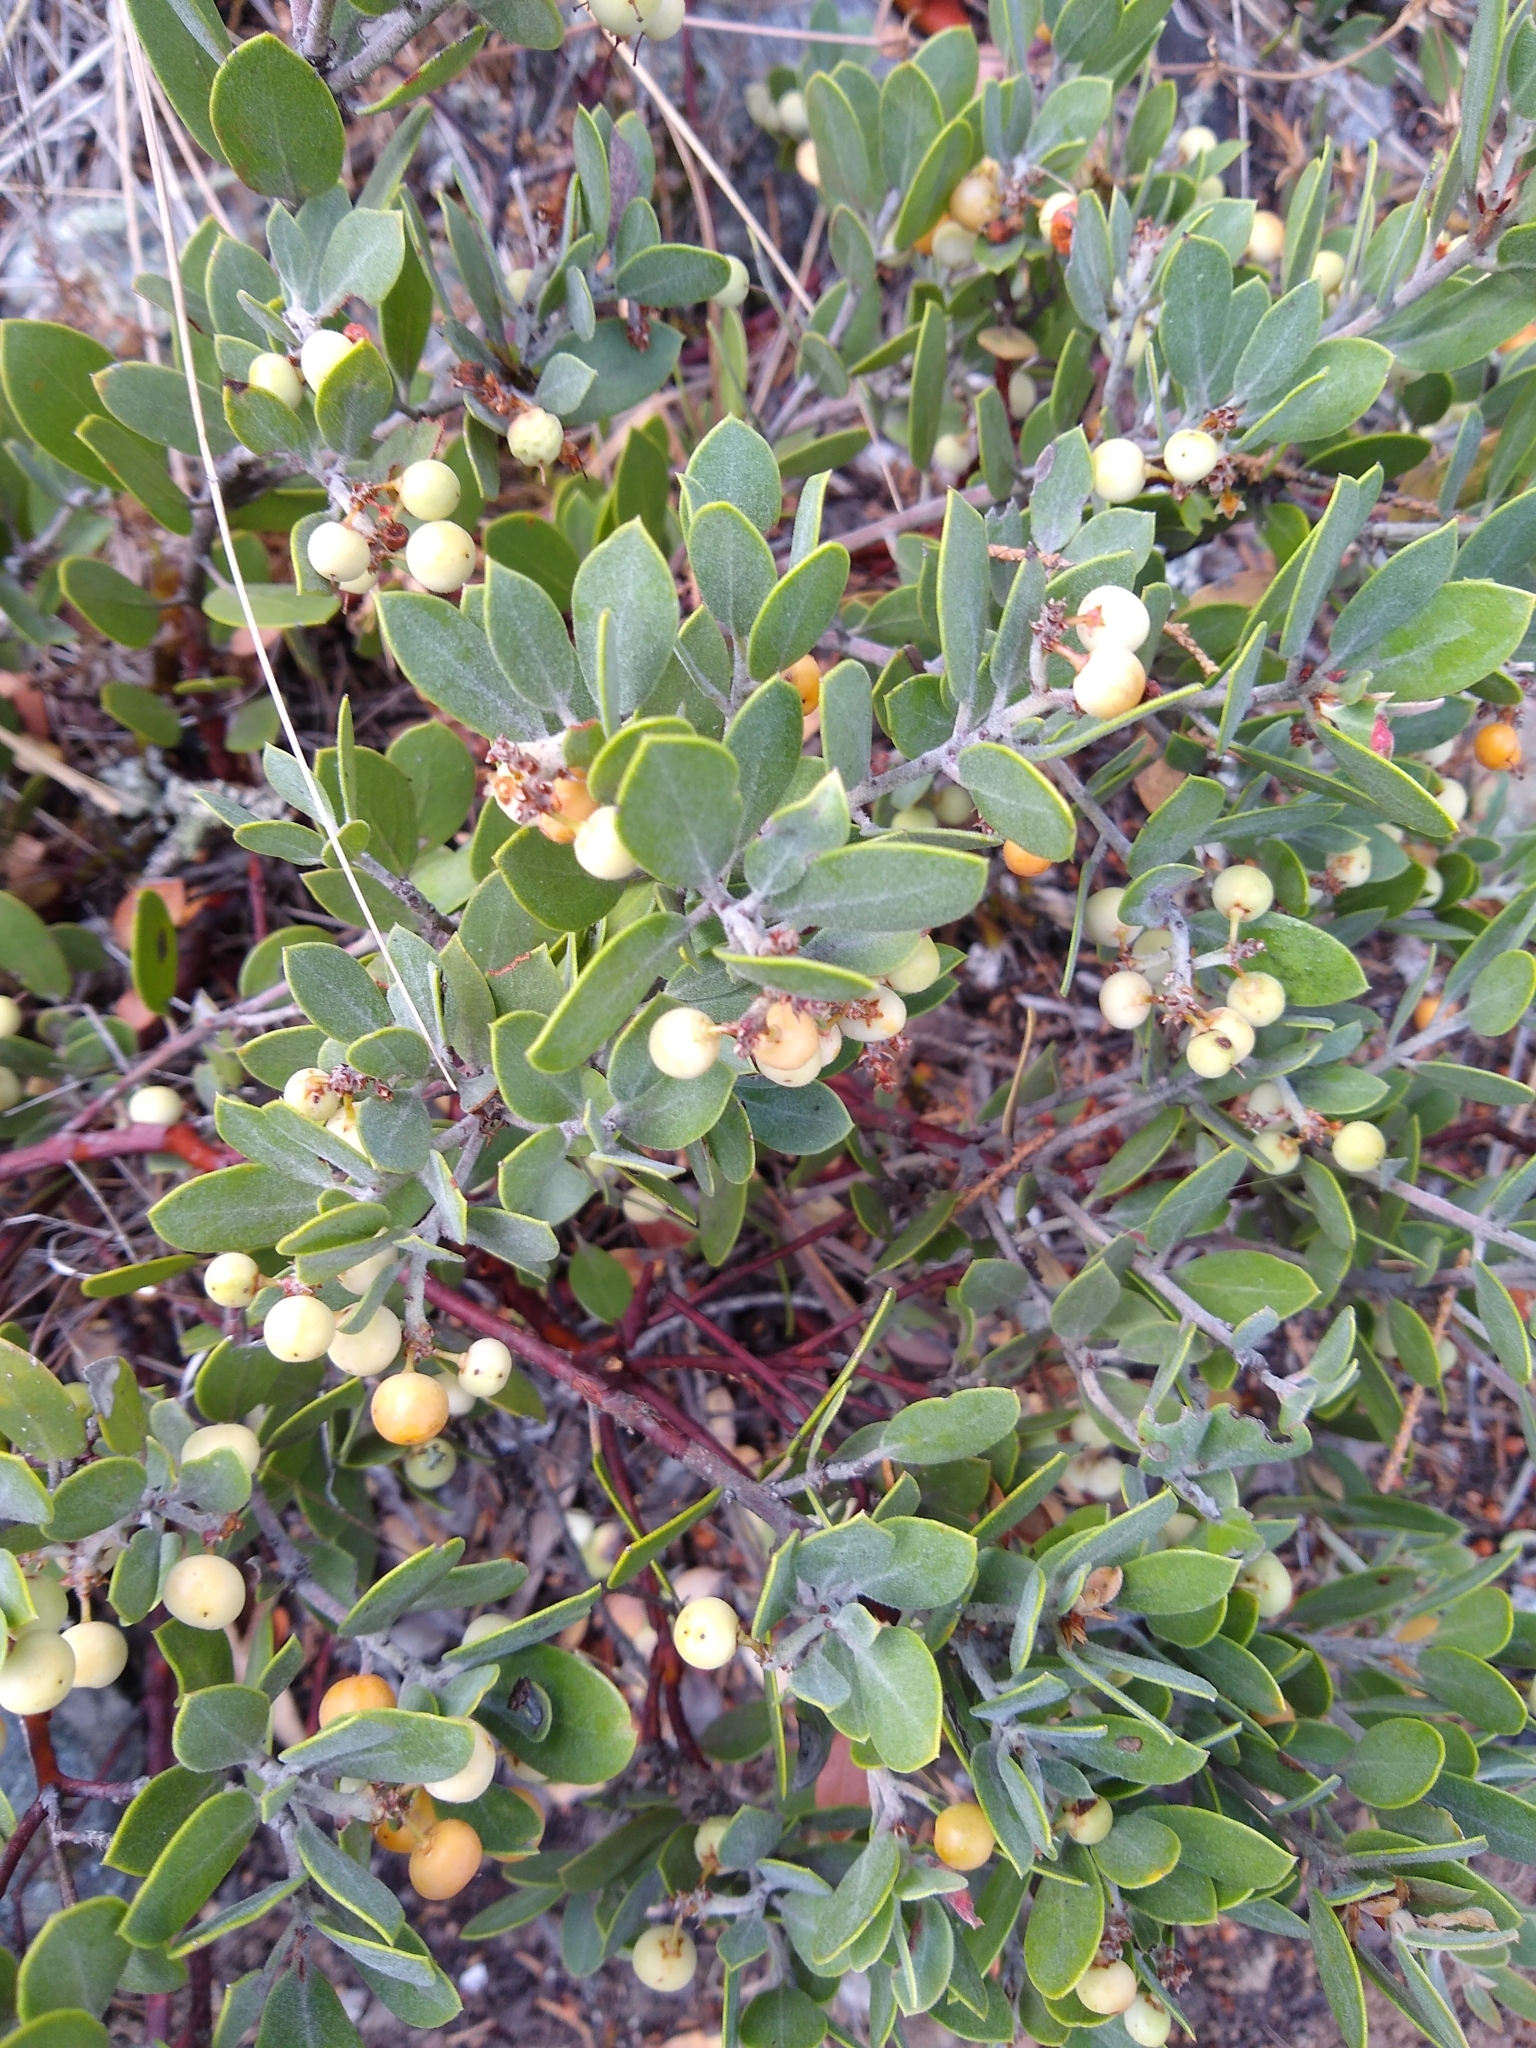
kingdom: Plantae
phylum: Tracheophyta
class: Magnoliopsida
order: Ericales
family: Ericaceae
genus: Arctostaphylos
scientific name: Arctostaphylos montana
